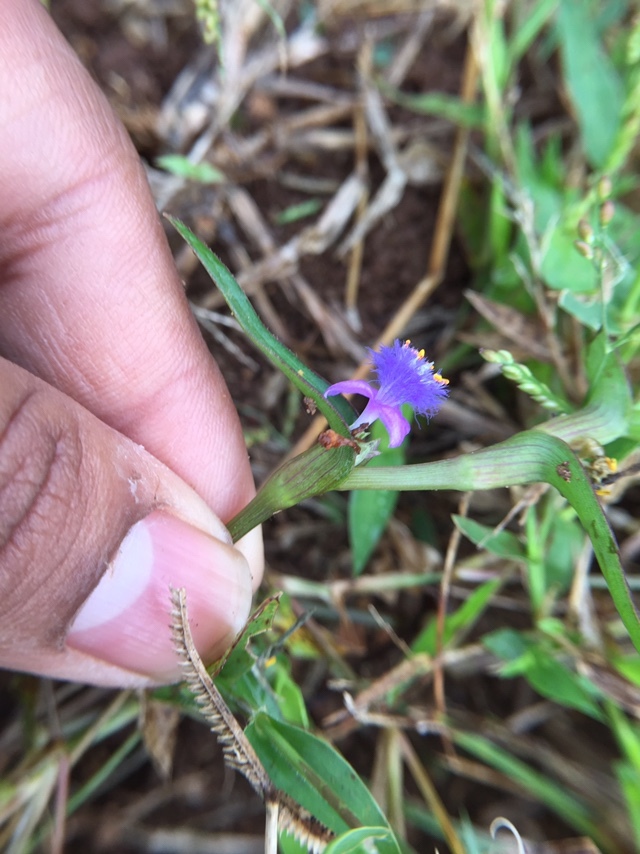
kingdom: Plantae
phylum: Tracheophyta
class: Liliopsida
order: Commelinales
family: Commelinaceae
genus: Cyanotis
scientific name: Cyanotis axillaris
